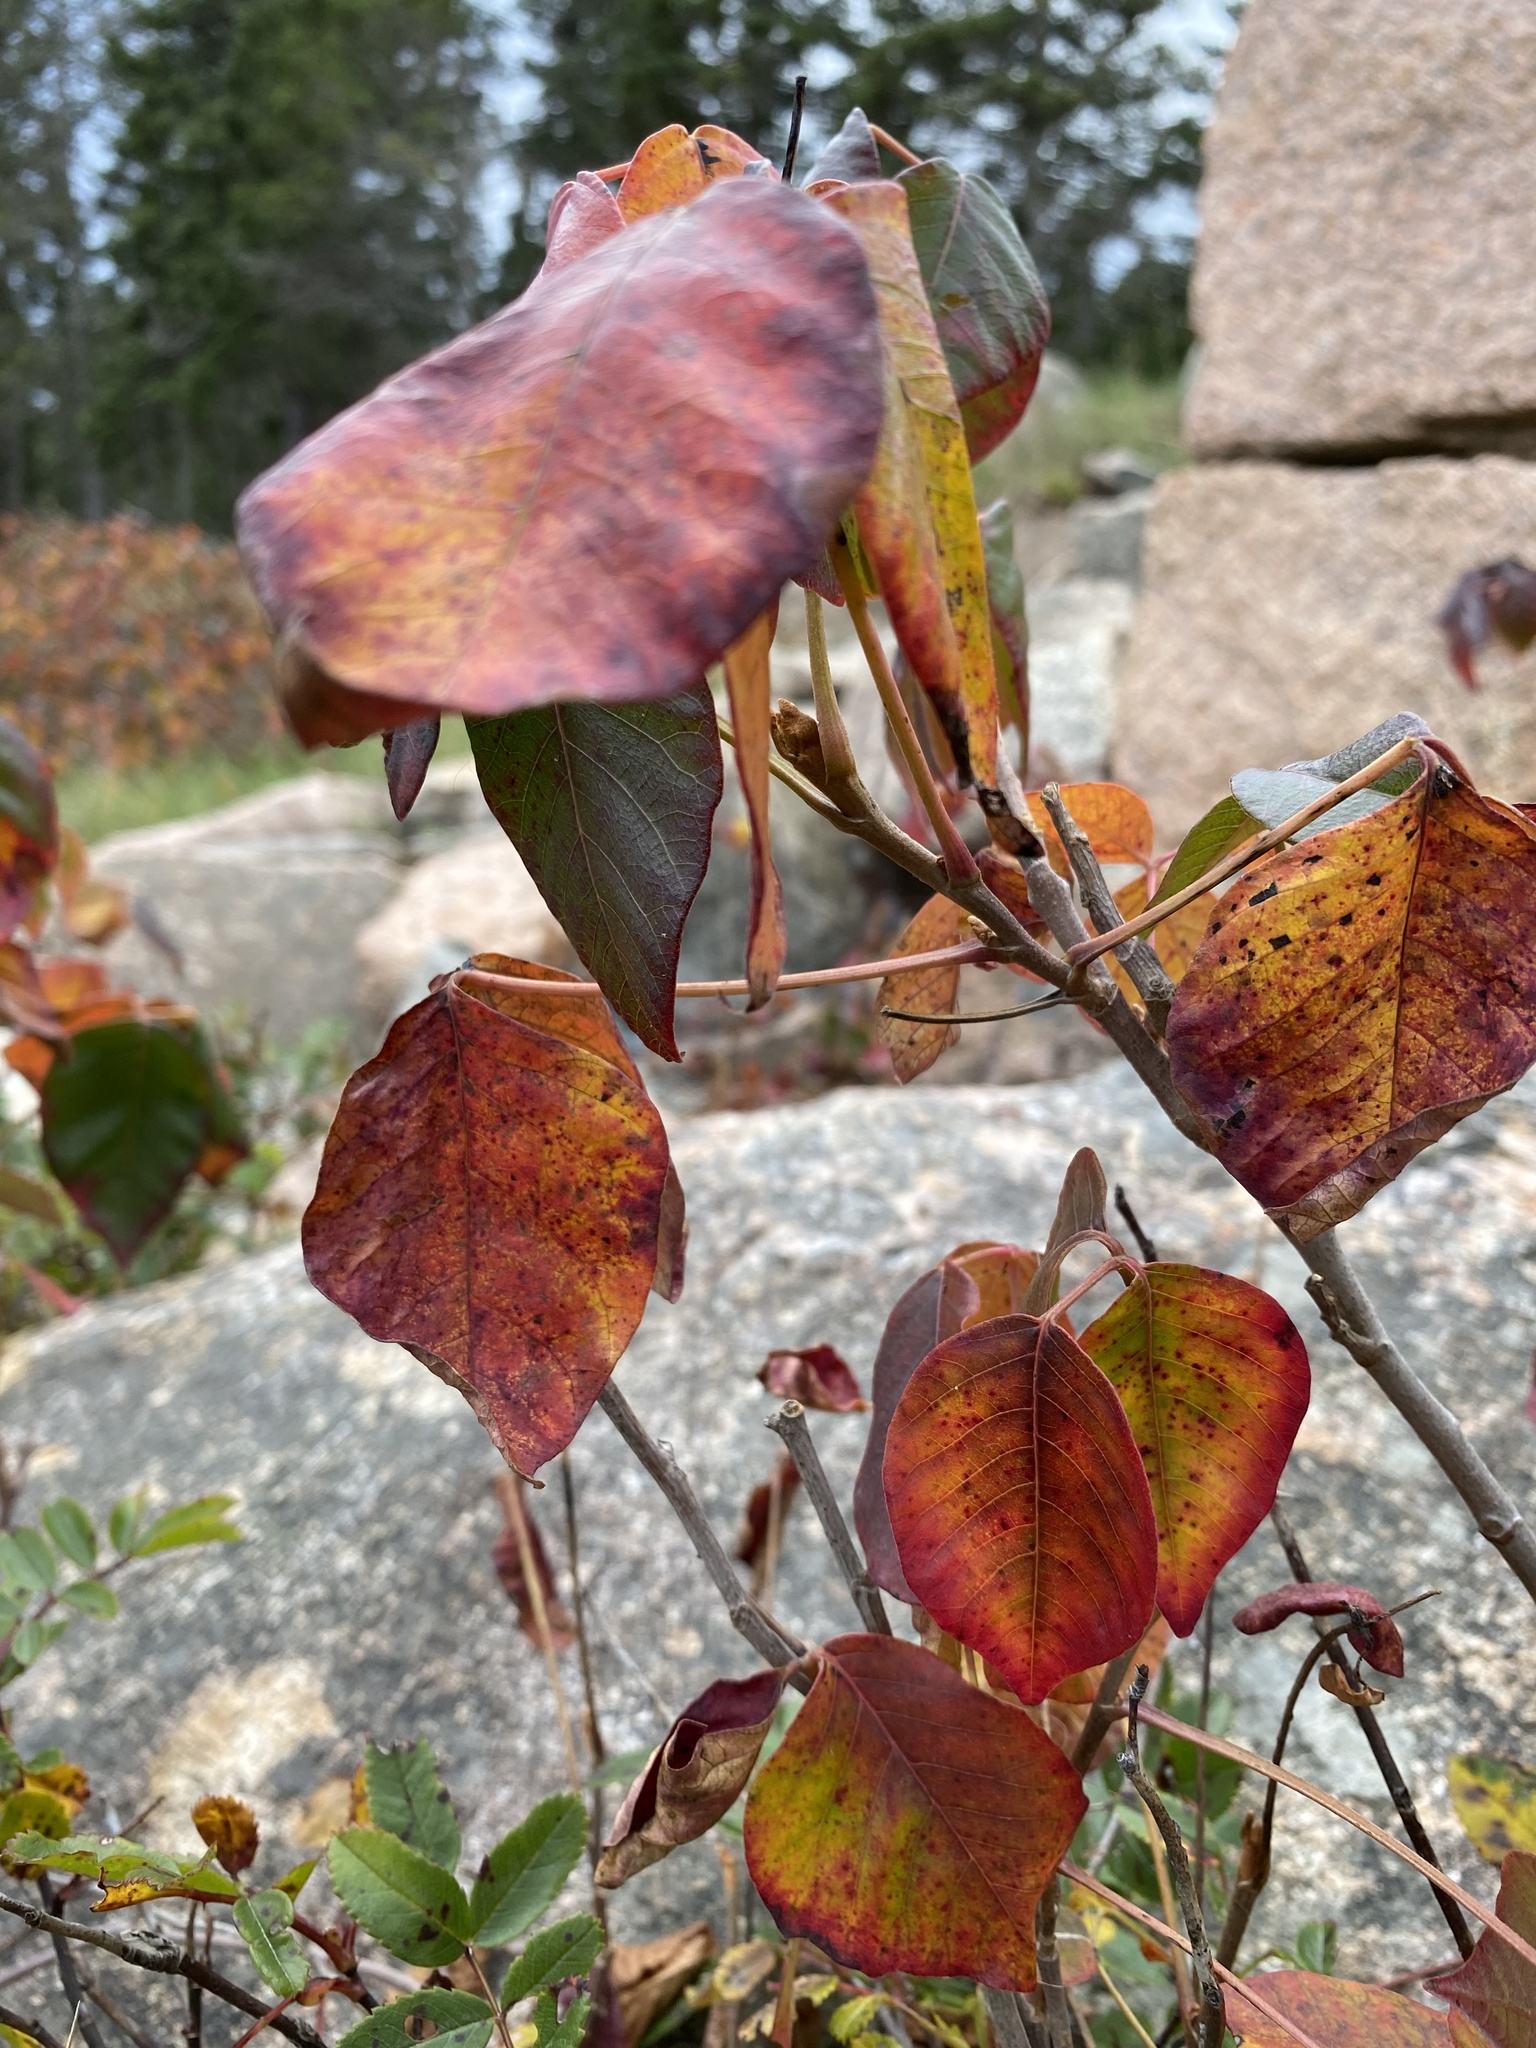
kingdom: Plantae
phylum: Tracheophyta
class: Magnoliopsida
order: Sapindales
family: Anacardiaceae
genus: Toxicodendron
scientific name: Toxicodendron radicans
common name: Poison ivy
